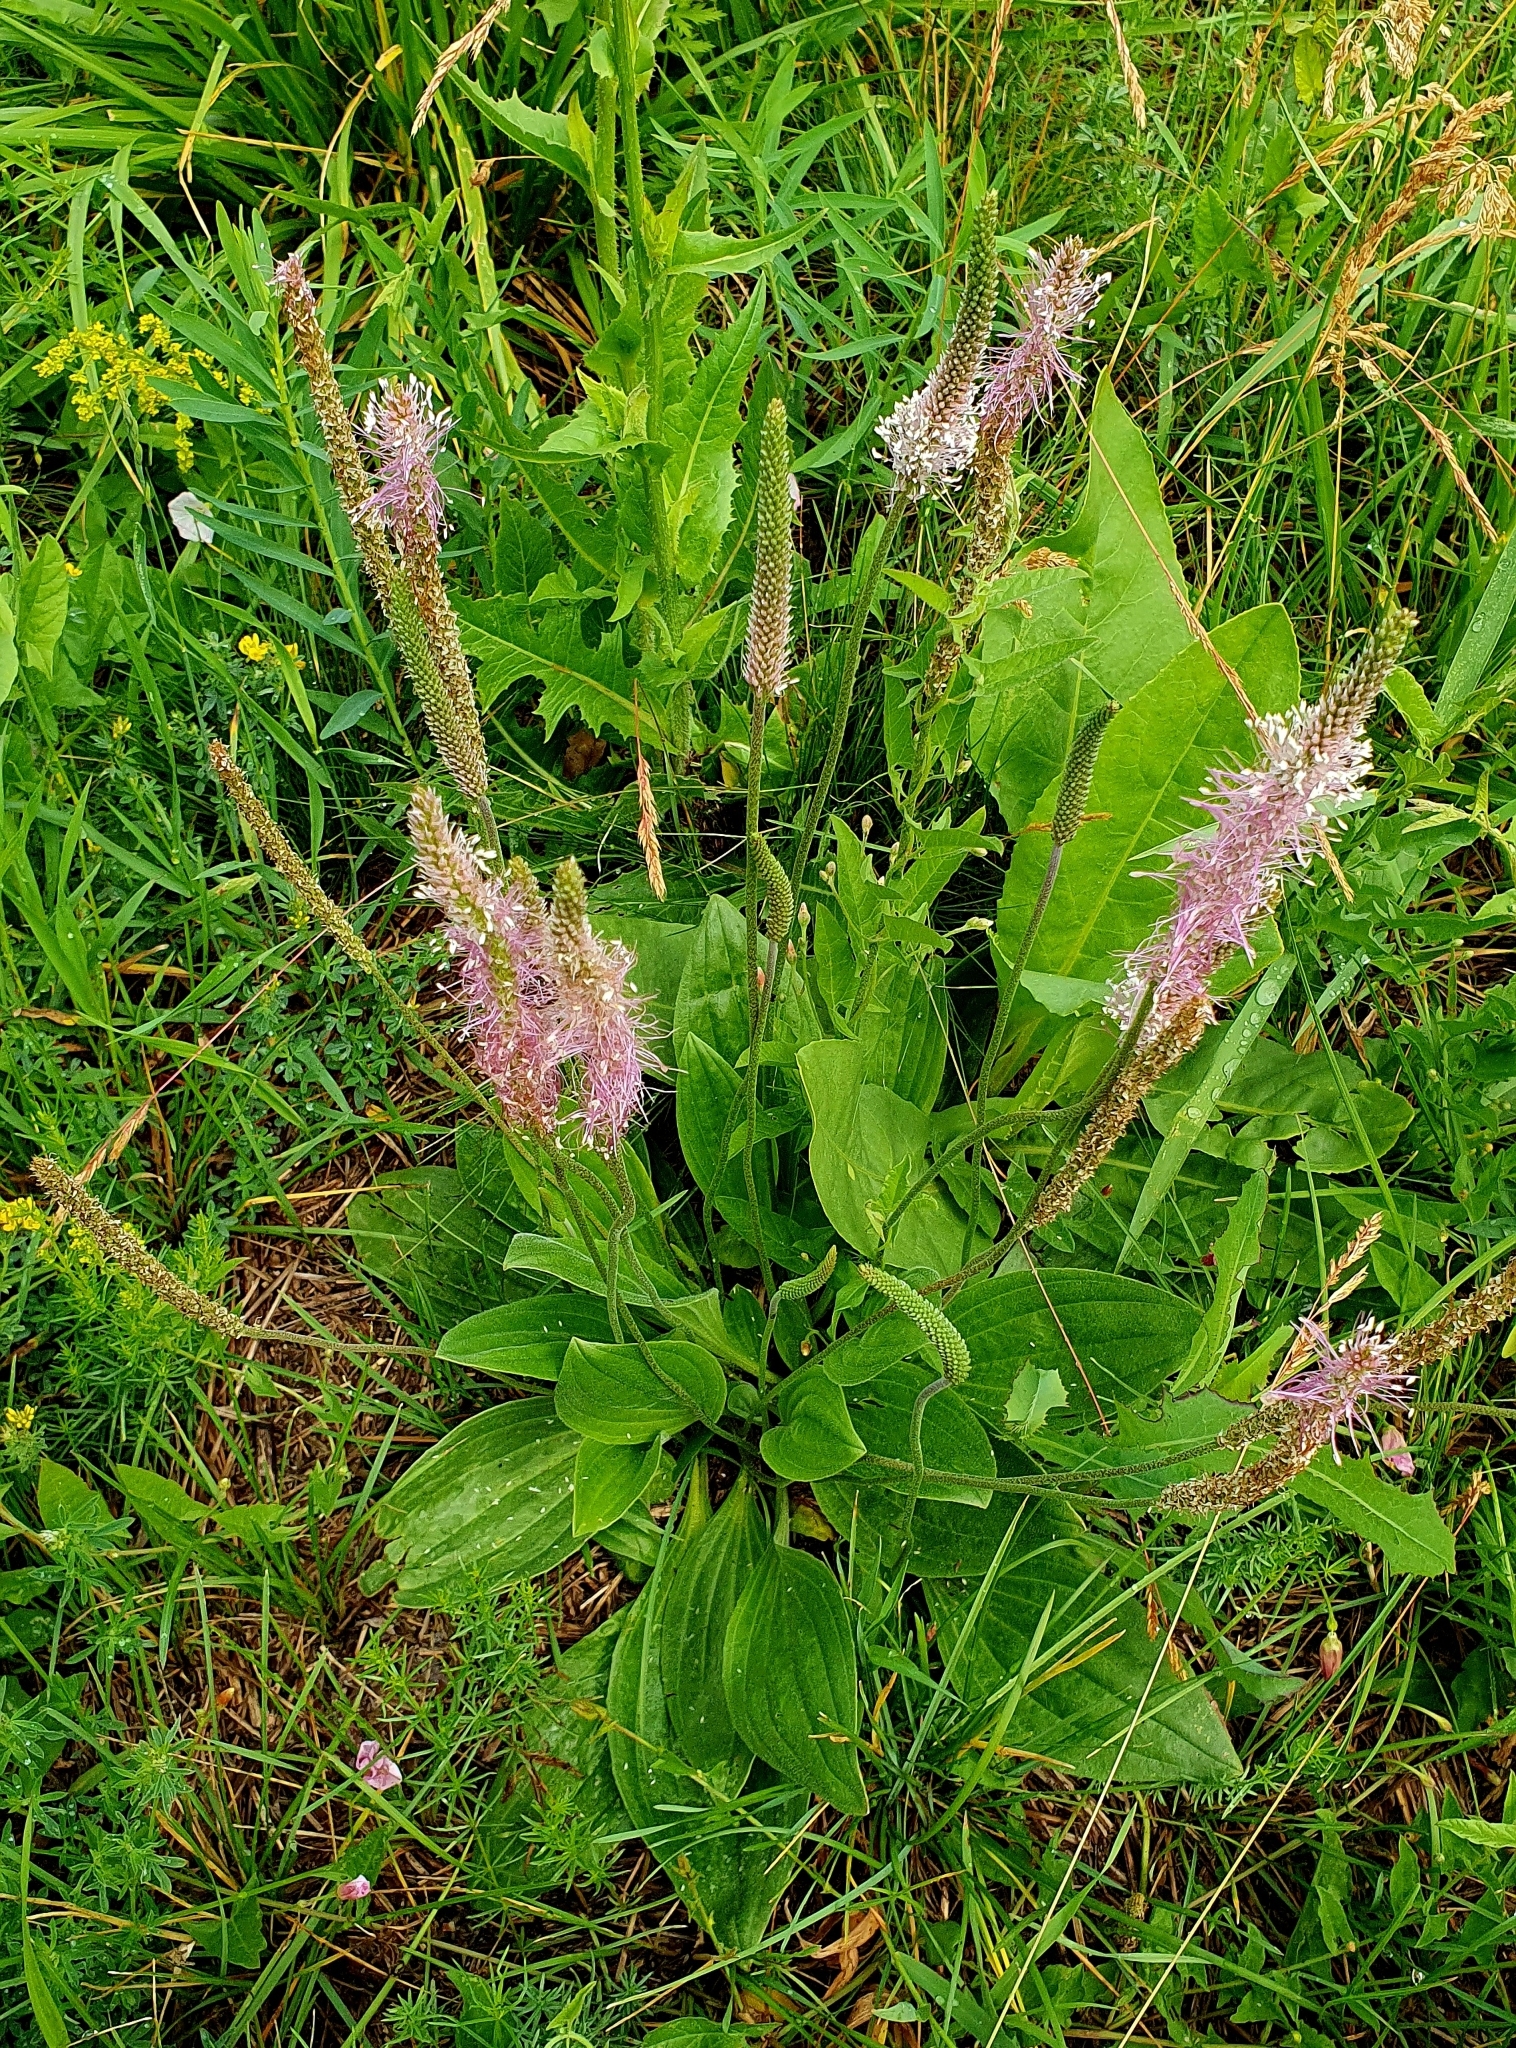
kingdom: Plantae
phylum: Tracheophyta
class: Magnoliopsida
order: Lamiales
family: Plantaginaceae
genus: Plantago
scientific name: Plantago media
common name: Hoary plantain
